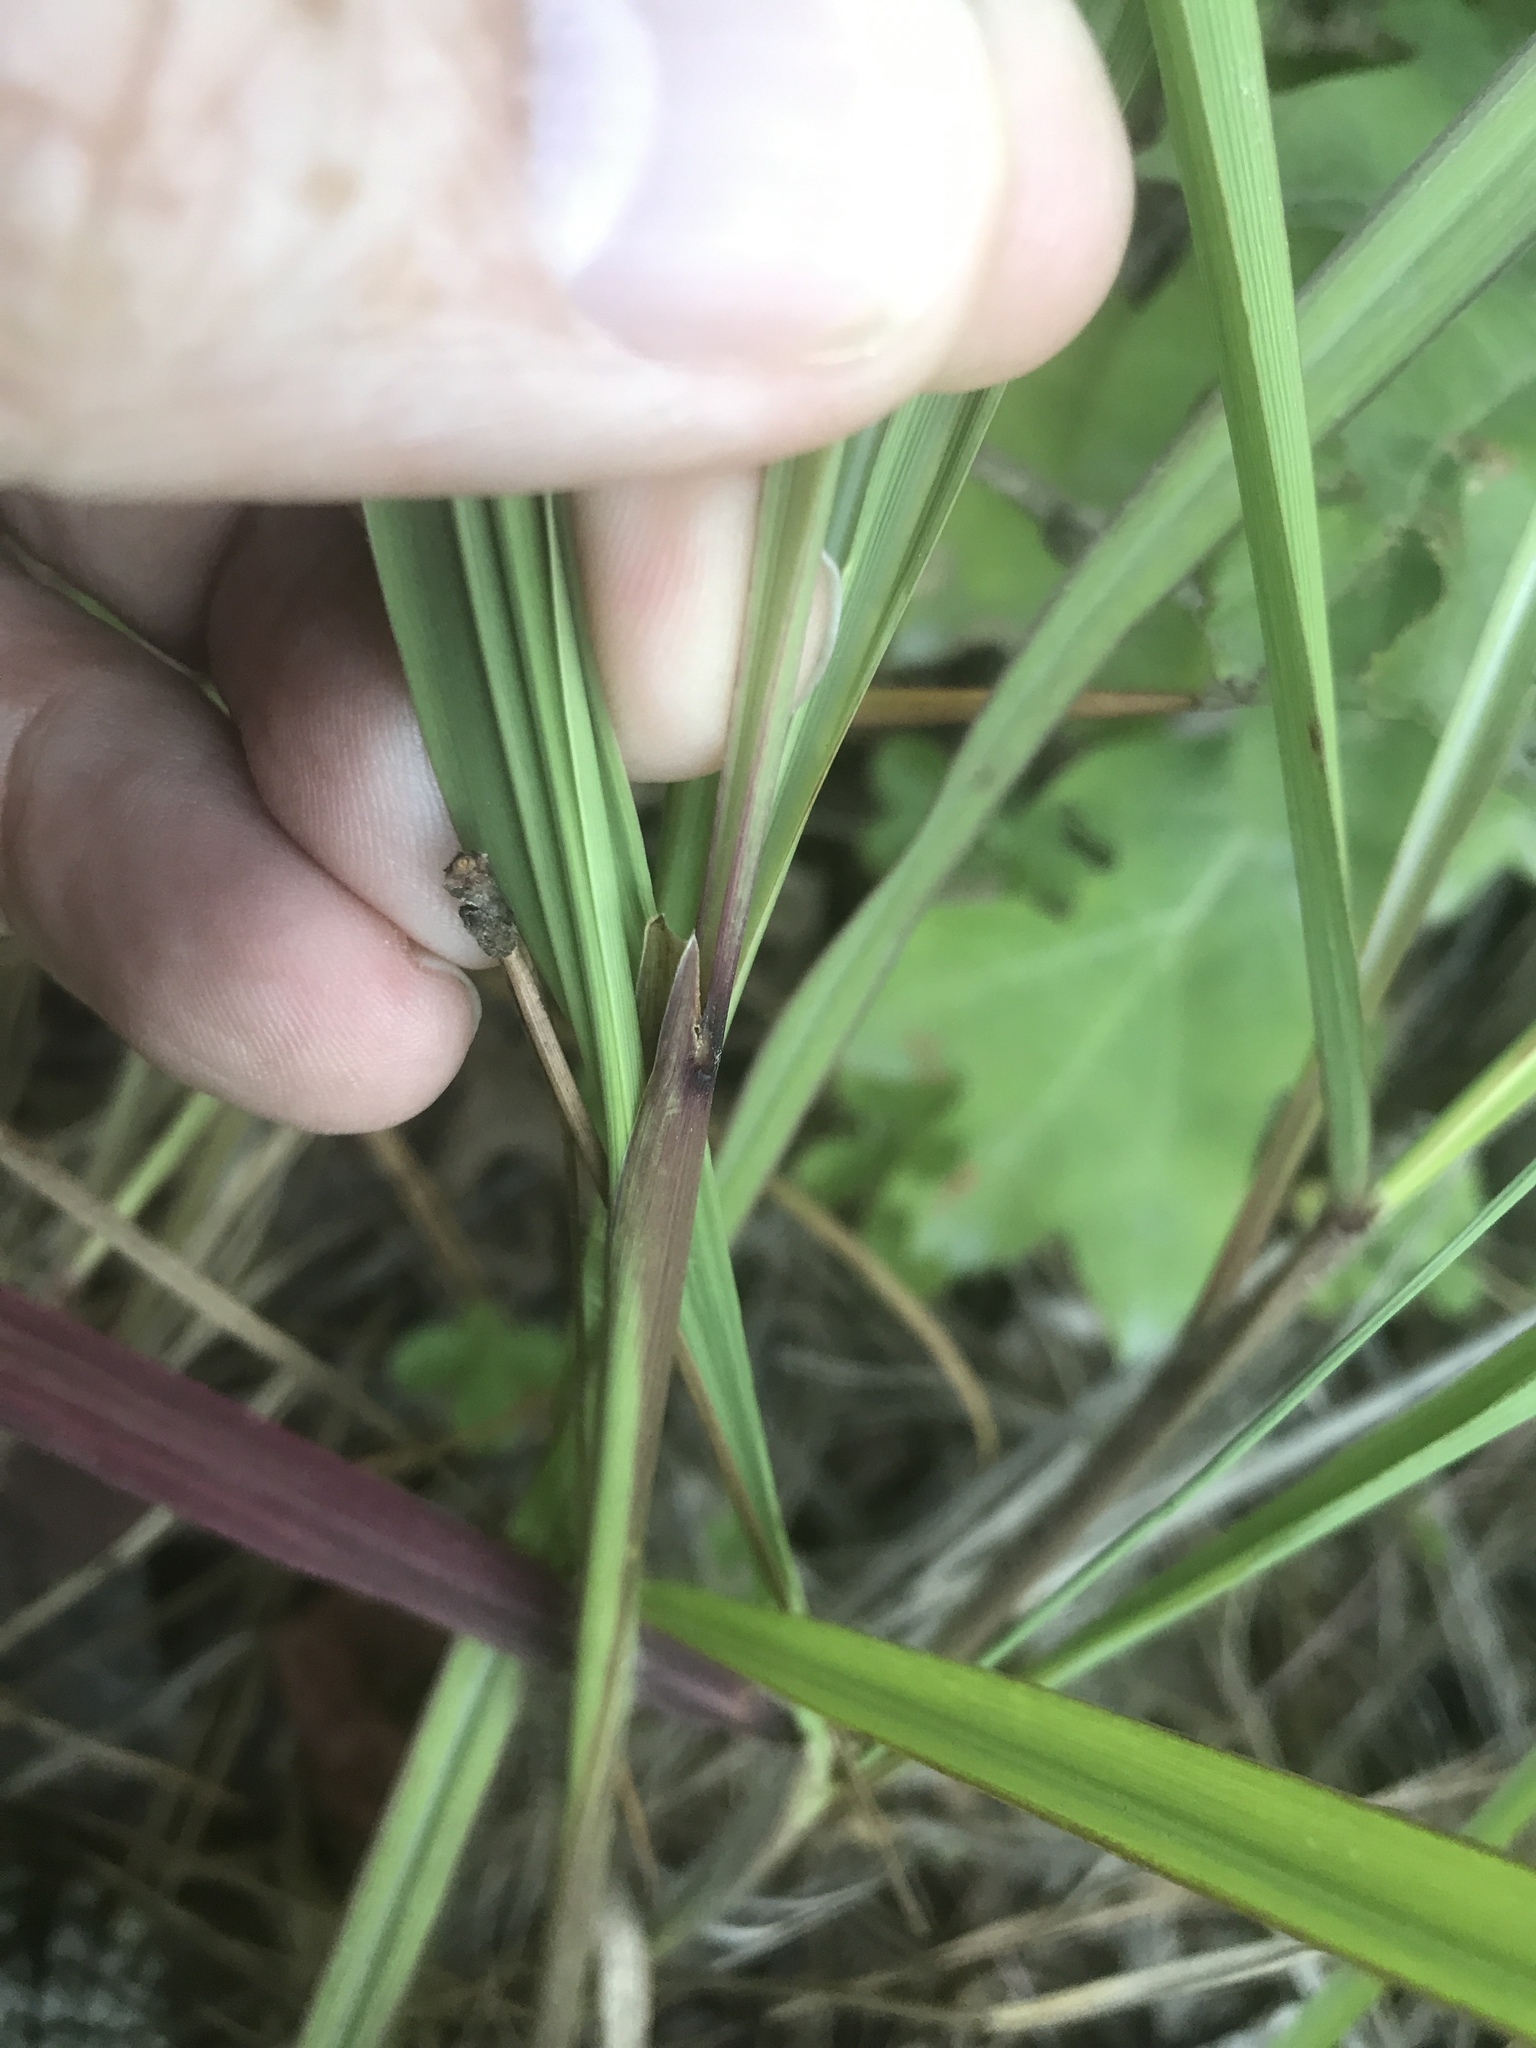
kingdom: Plantae
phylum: Tracheophyta
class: Liliopsida
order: Poales
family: Poaceae
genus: Sorghastrum
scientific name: Sorghastrum nutans
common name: Indian grass
